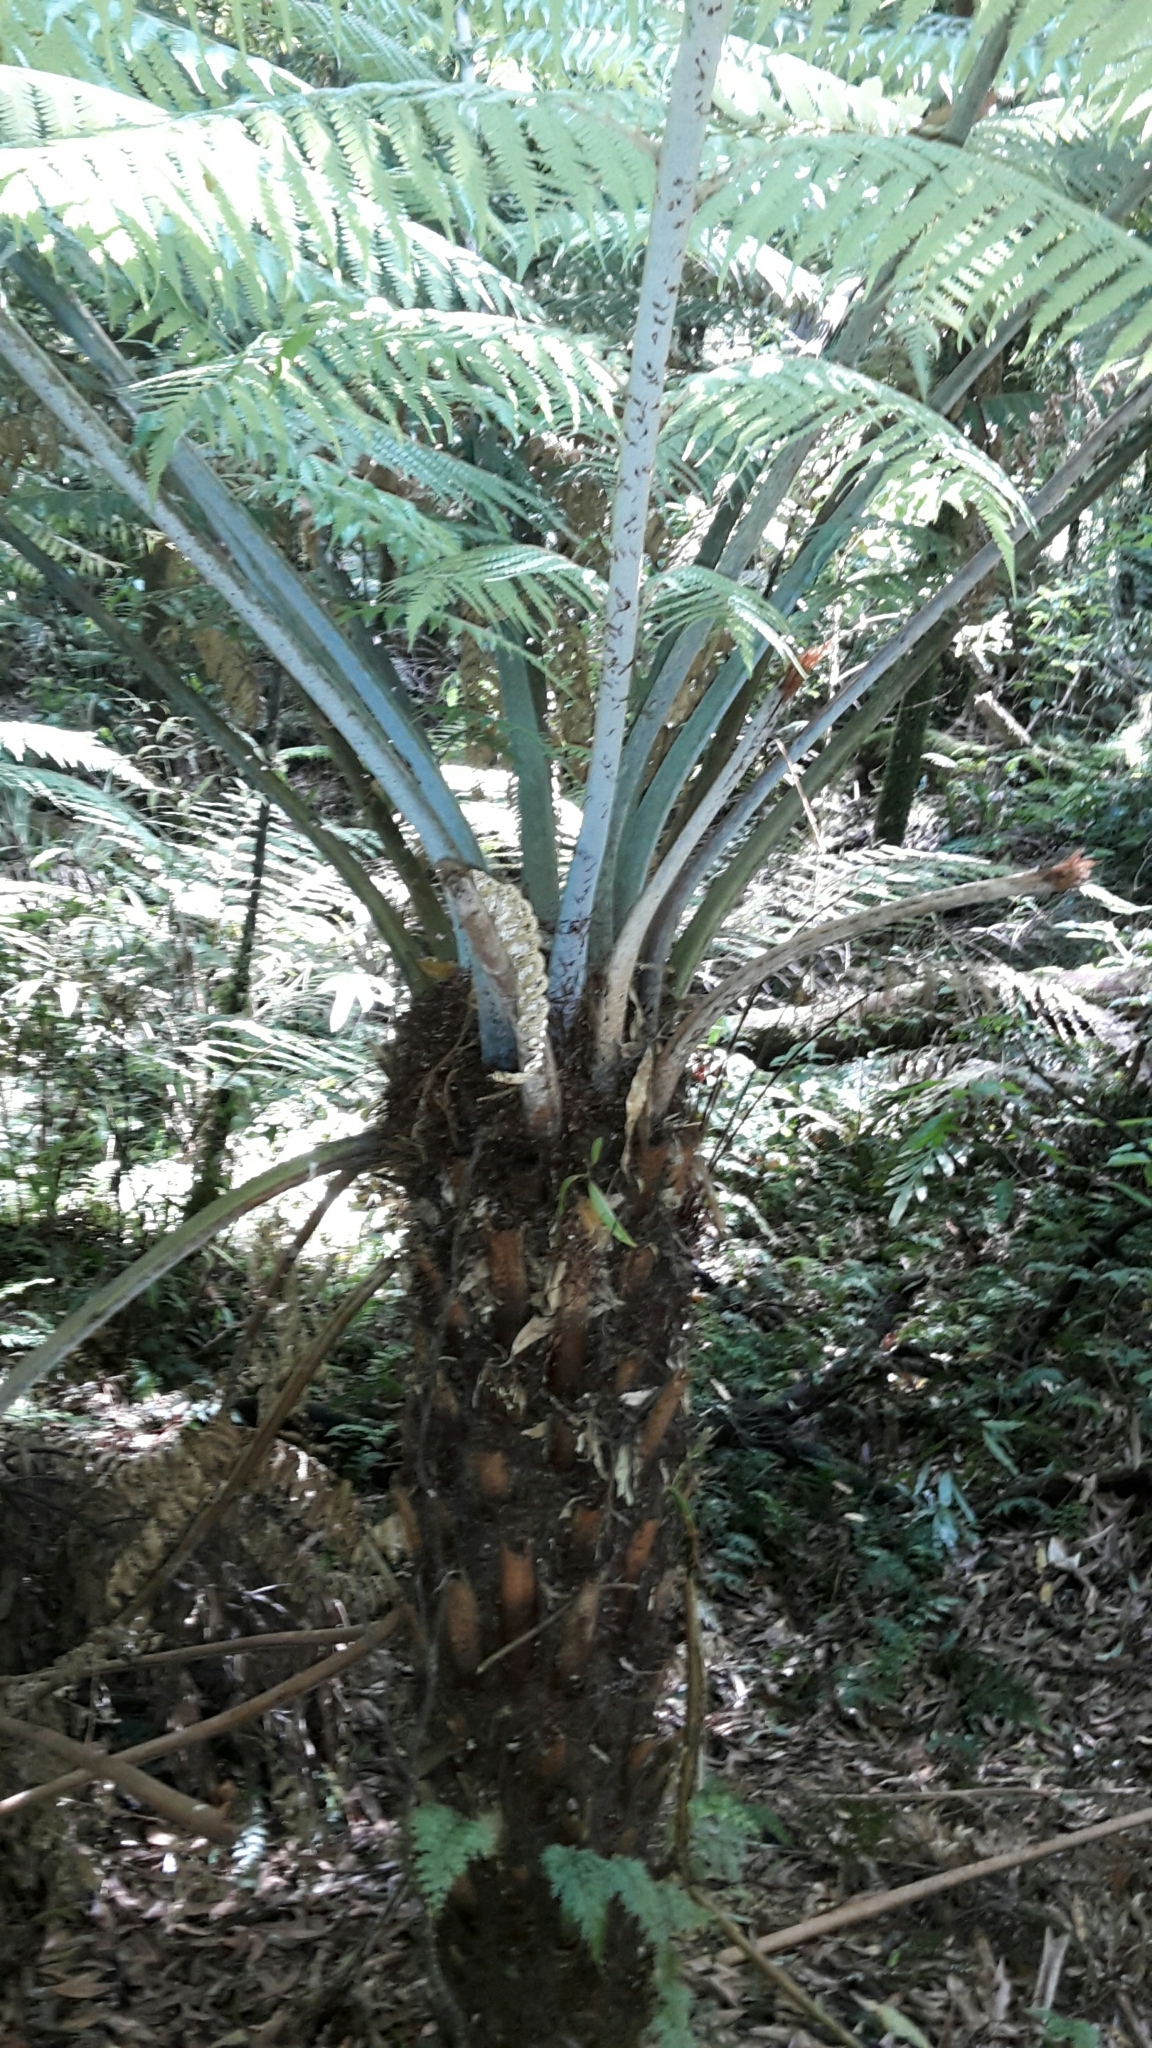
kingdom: Plantae
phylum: Tracheophyta
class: Polypodiopsida
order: Cyatheales
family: Cyatheaceae
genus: Alsophila
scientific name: Alsophila dealbata
